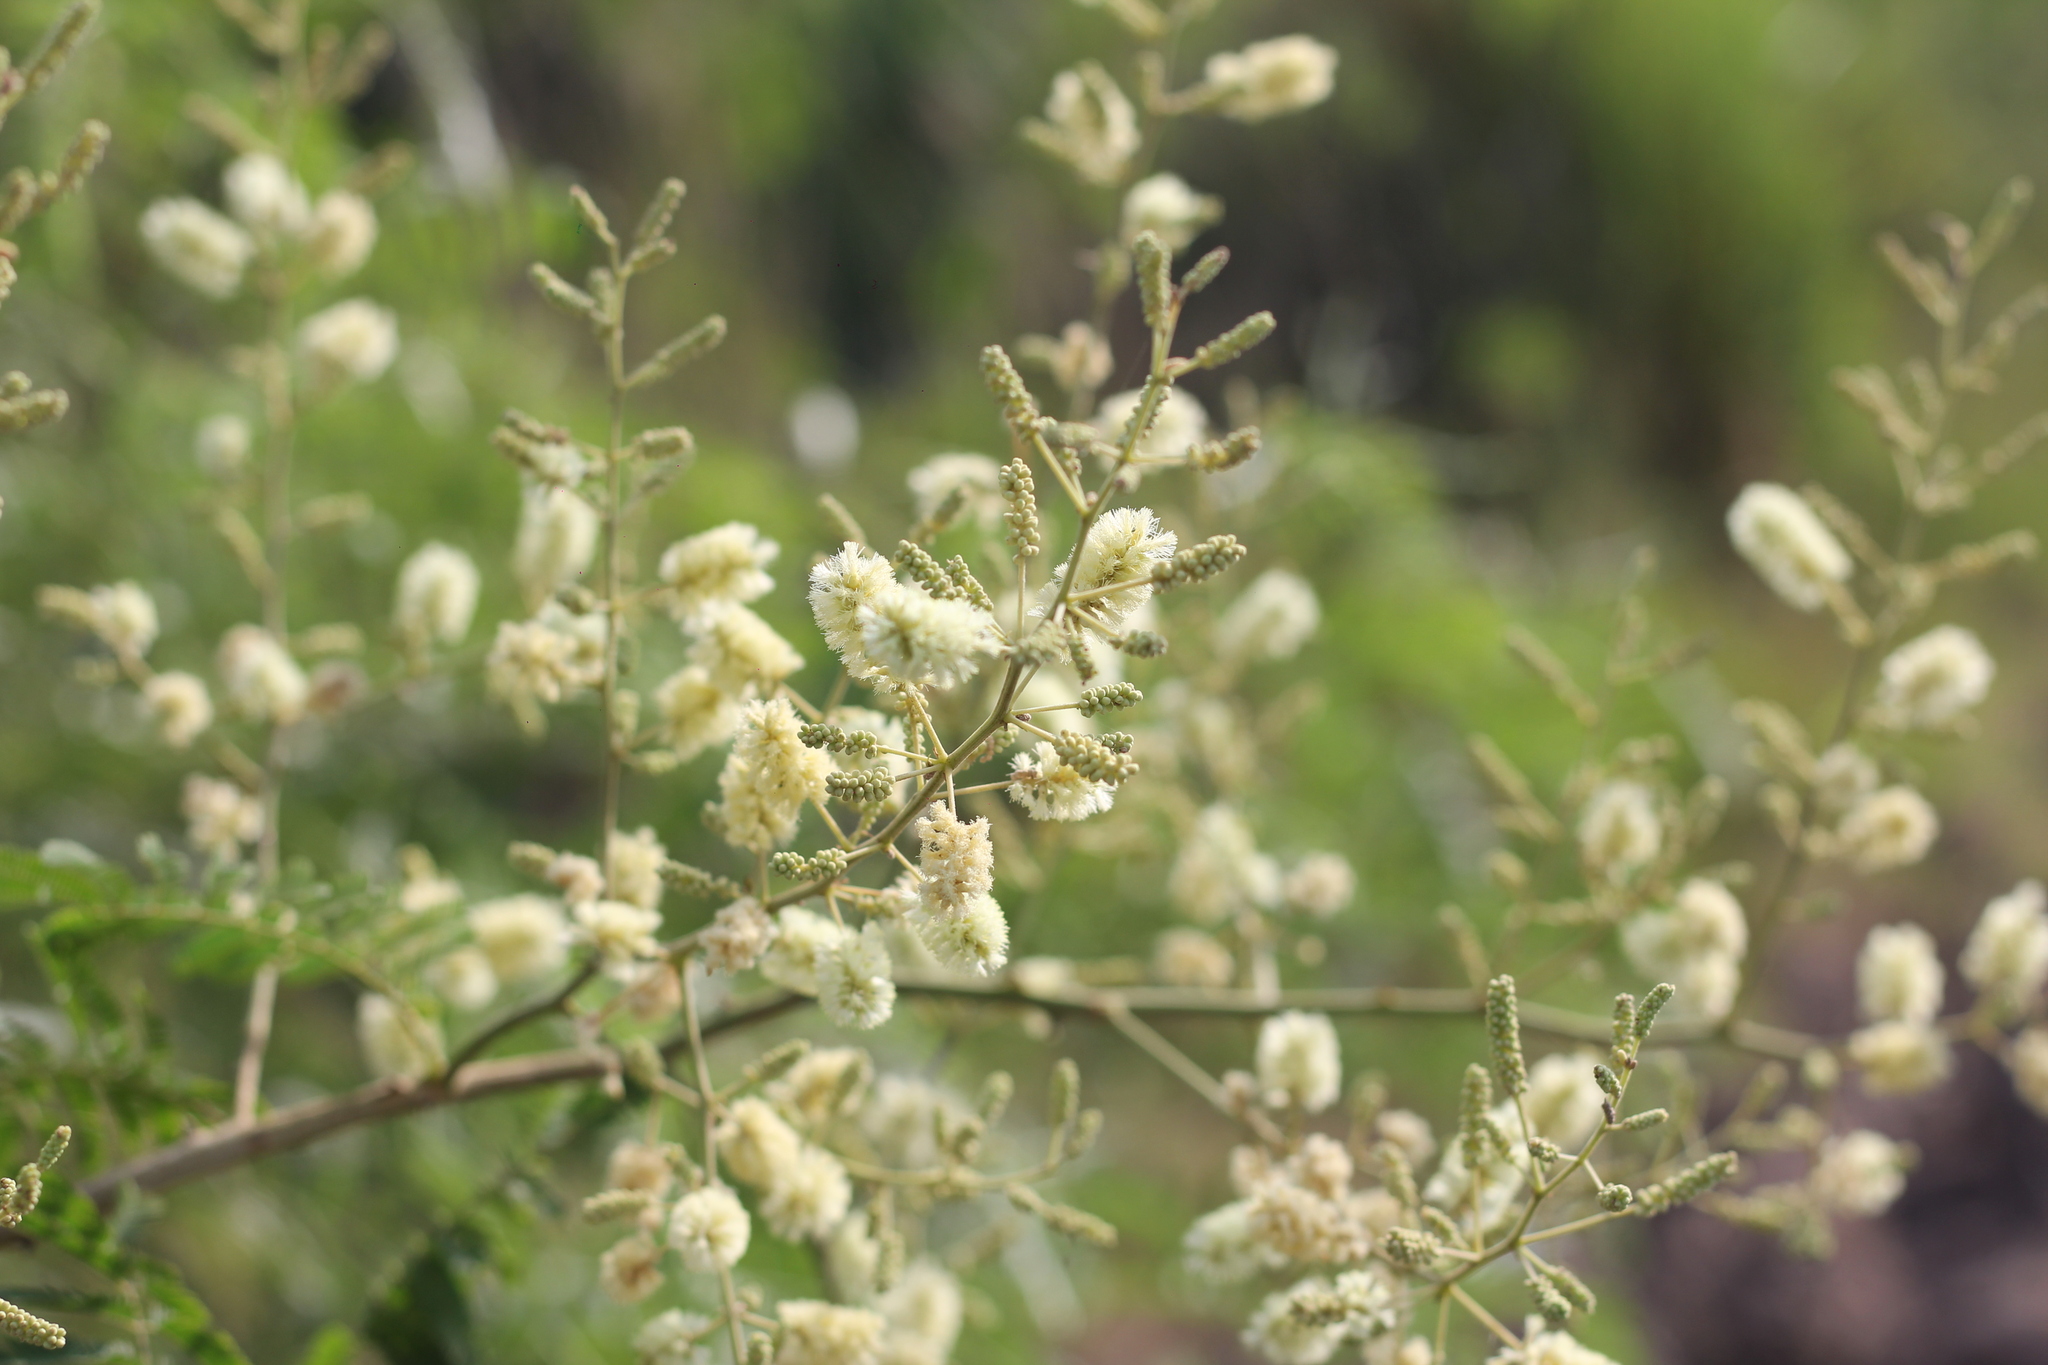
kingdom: Plantae
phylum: Tracheophyta
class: Magnoliopsida
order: Fabales
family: Fabaceae
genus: Senegalia
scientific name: Senegalia bonariensis
